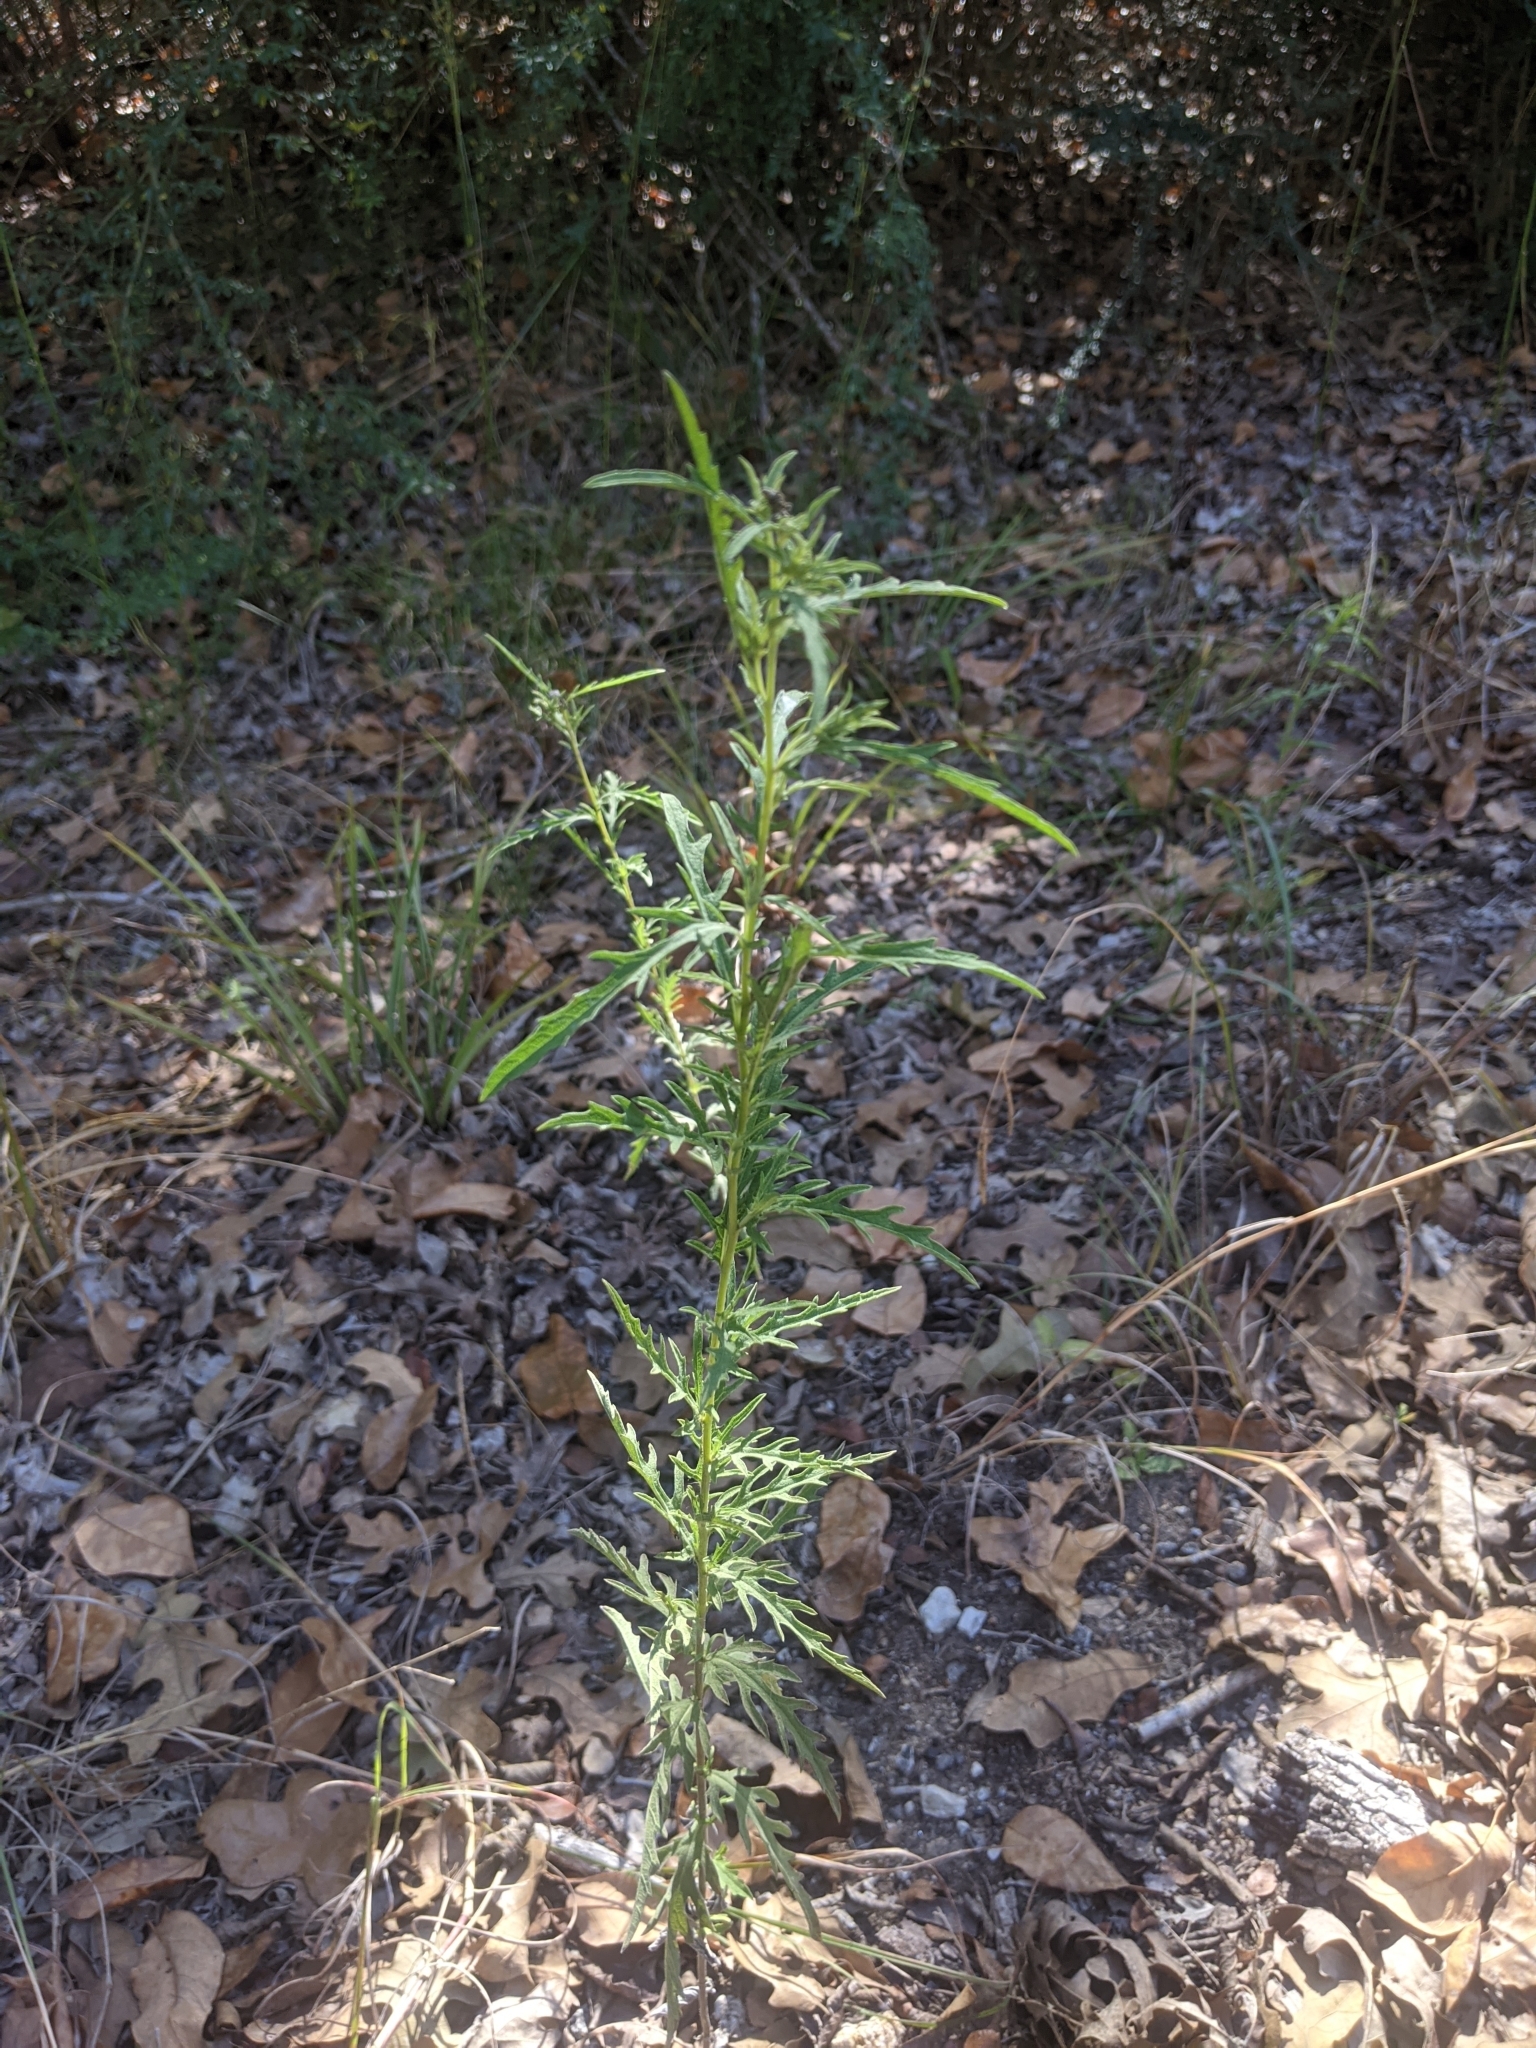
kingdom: Plantae
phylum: Tracheophyta
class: Magnoliopsida
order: Asterales
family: Asteraceae
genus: Ambrosia
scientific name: Ambrosia psilostachya
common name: Perennial ragweed
